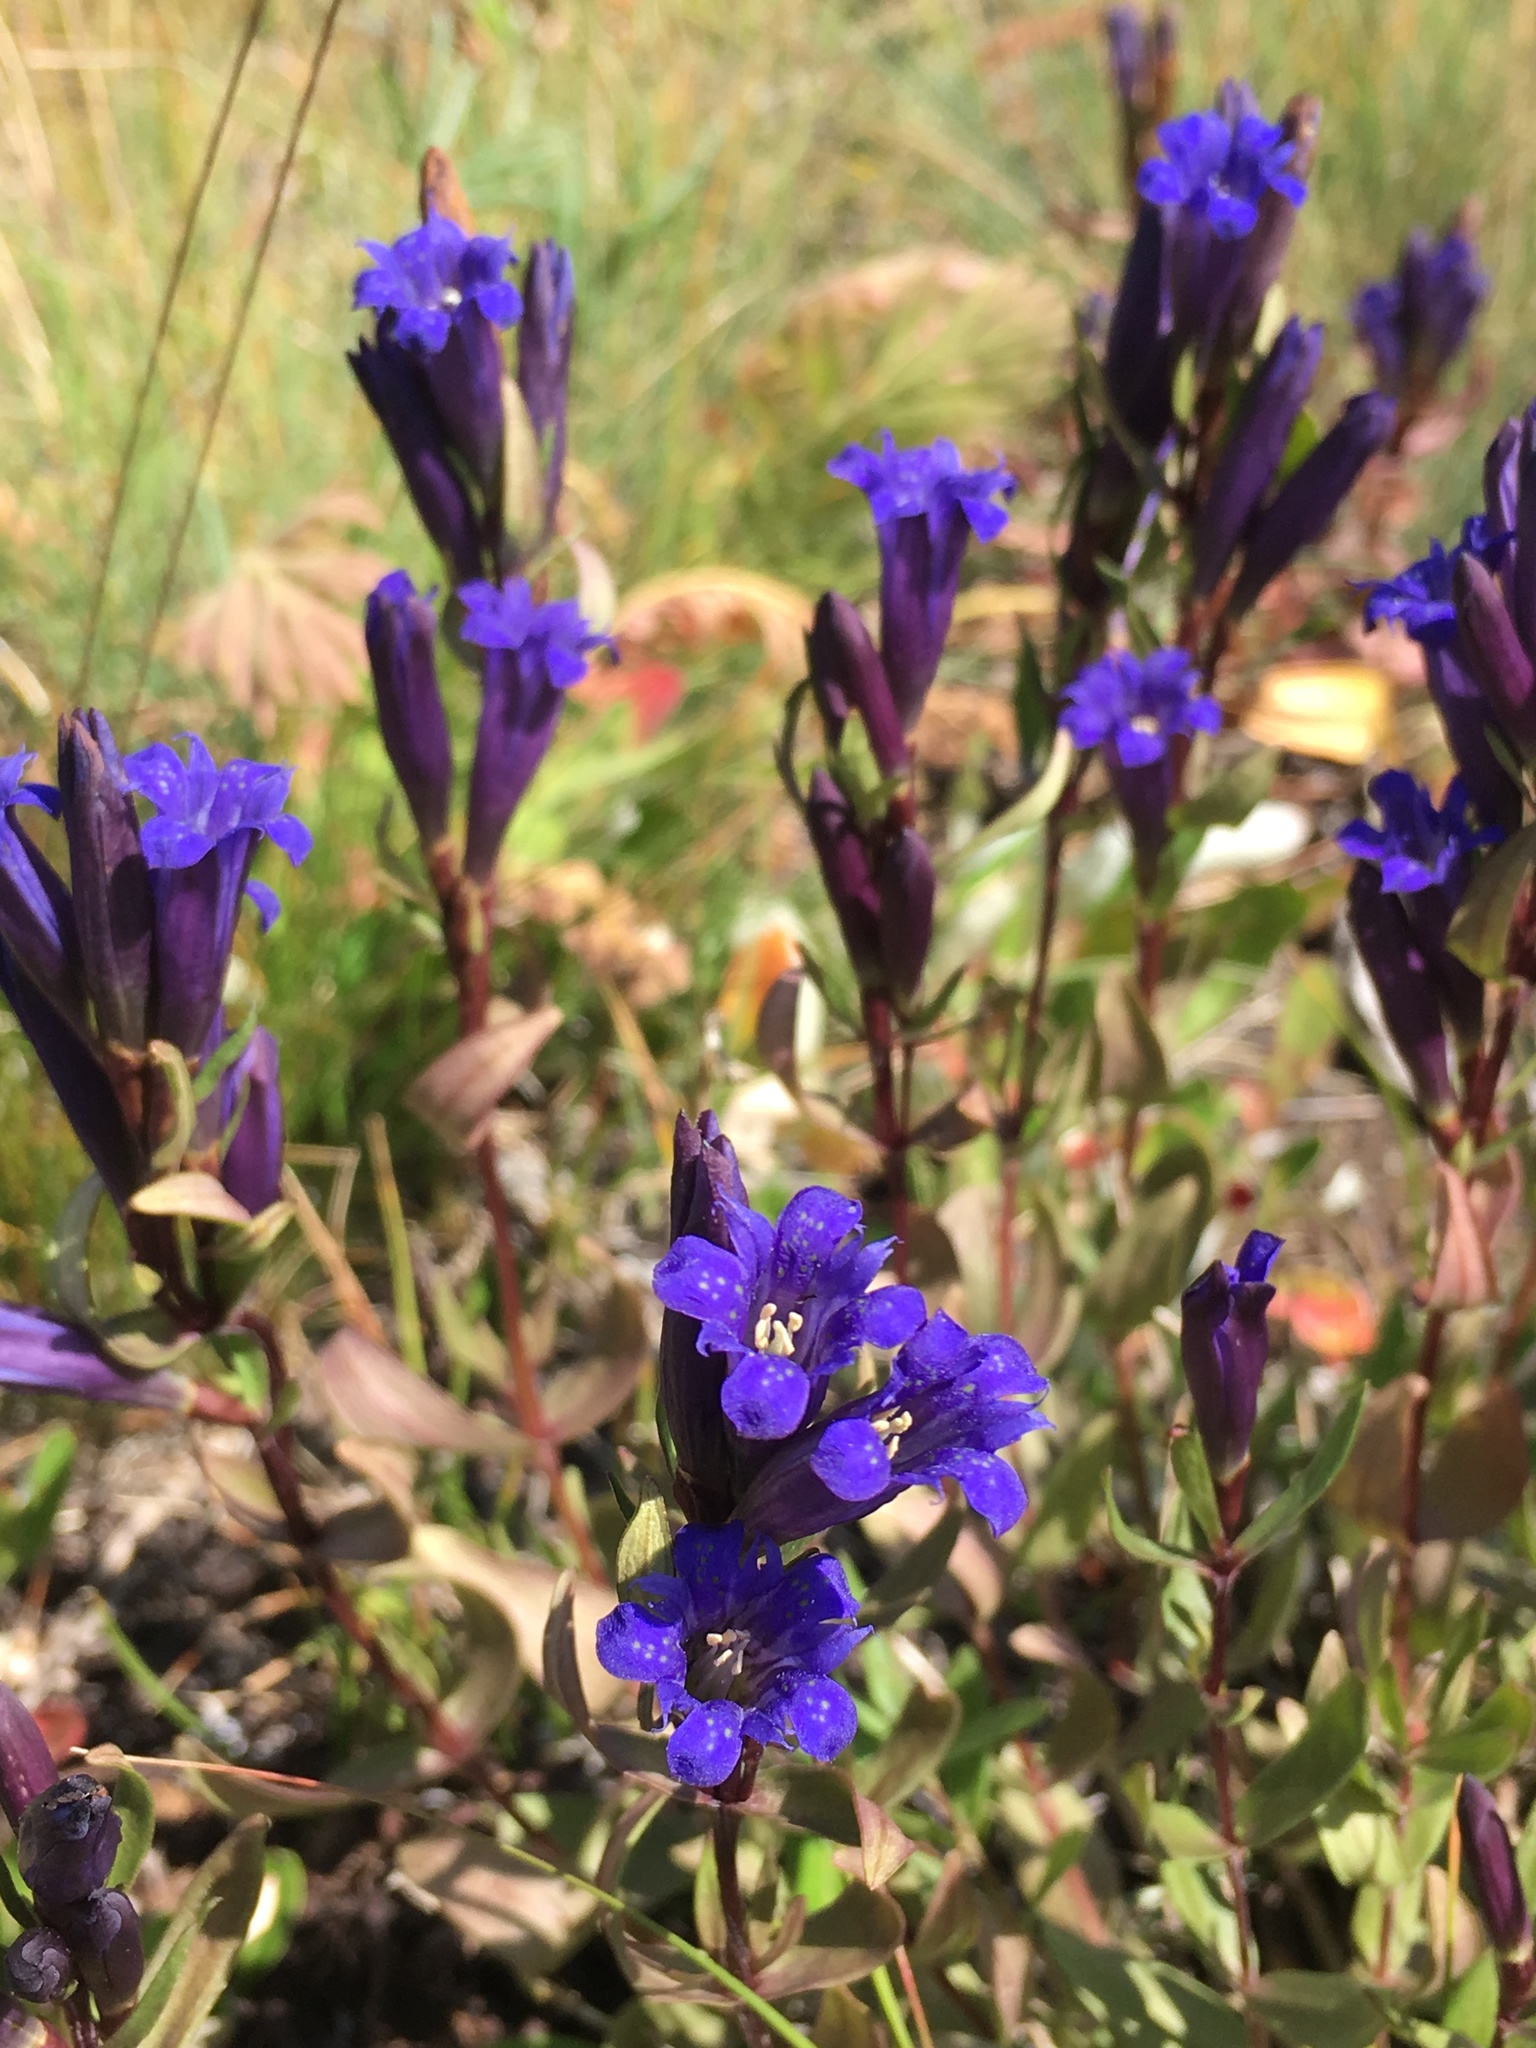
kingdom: Plantae
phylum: Tracheophyta
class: Magnoliopsida
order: Gentianales
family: Gentianaceae
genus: Gentiana
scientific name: Gentiana affinis
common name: Rocky mountain gentian
